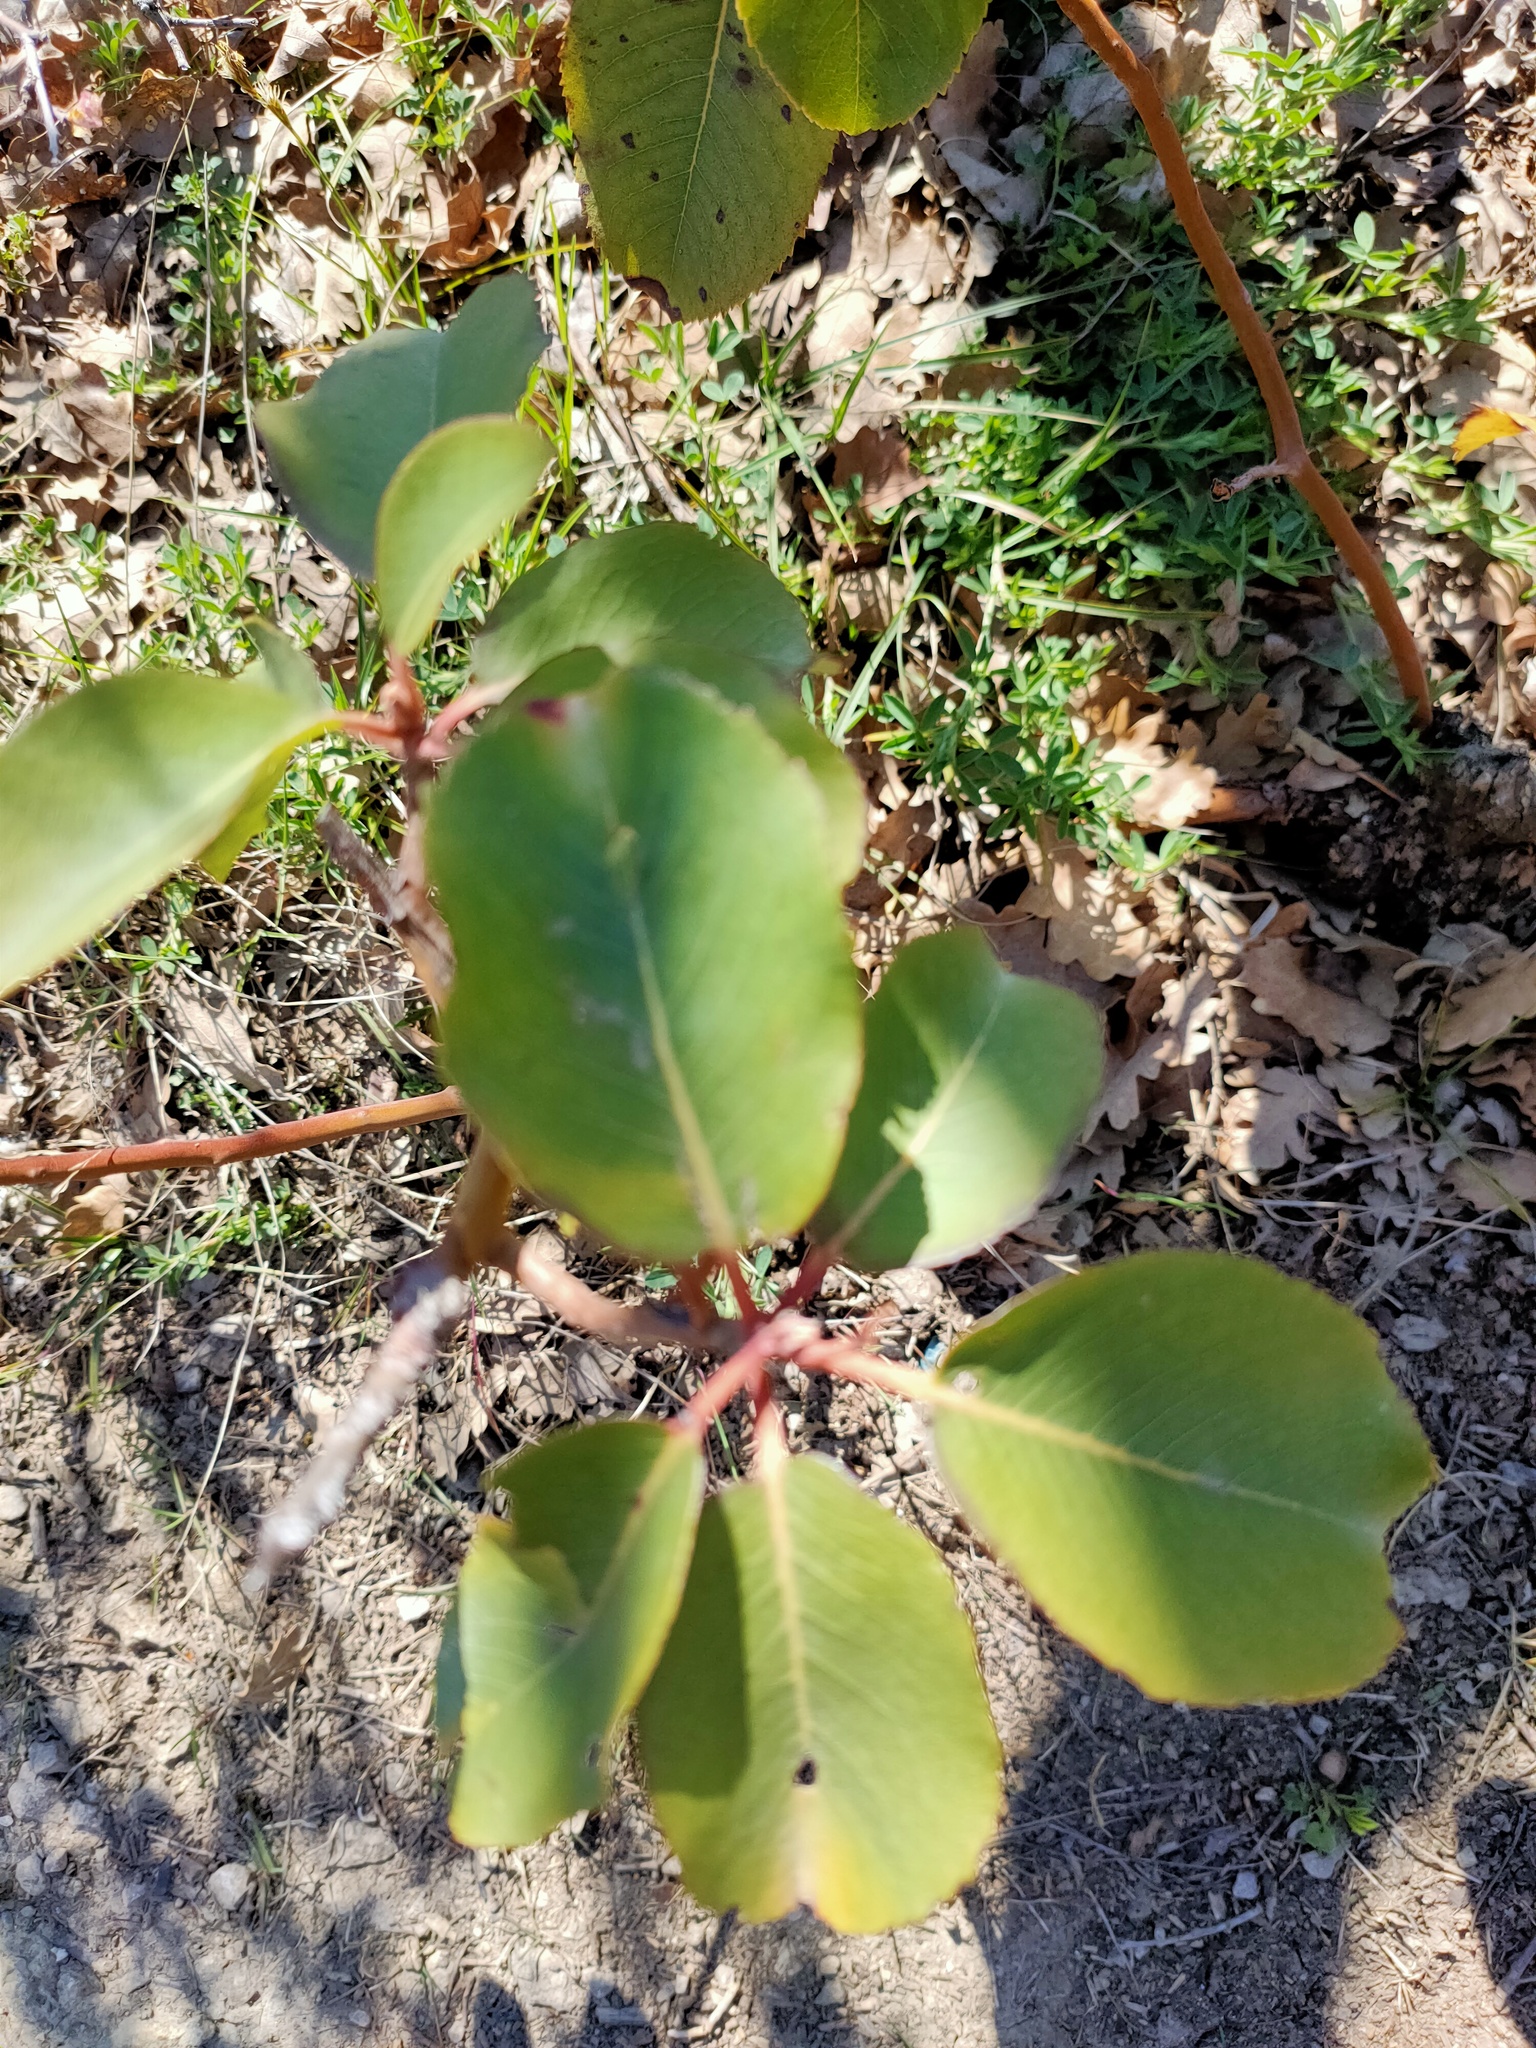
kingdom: Plantae
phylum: Tracheophyta
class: Magnoliopsida
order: Ericales
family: Ericaceae
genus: Arbutus
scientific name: Arbutus andrachne
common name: Greek strawberry tree
